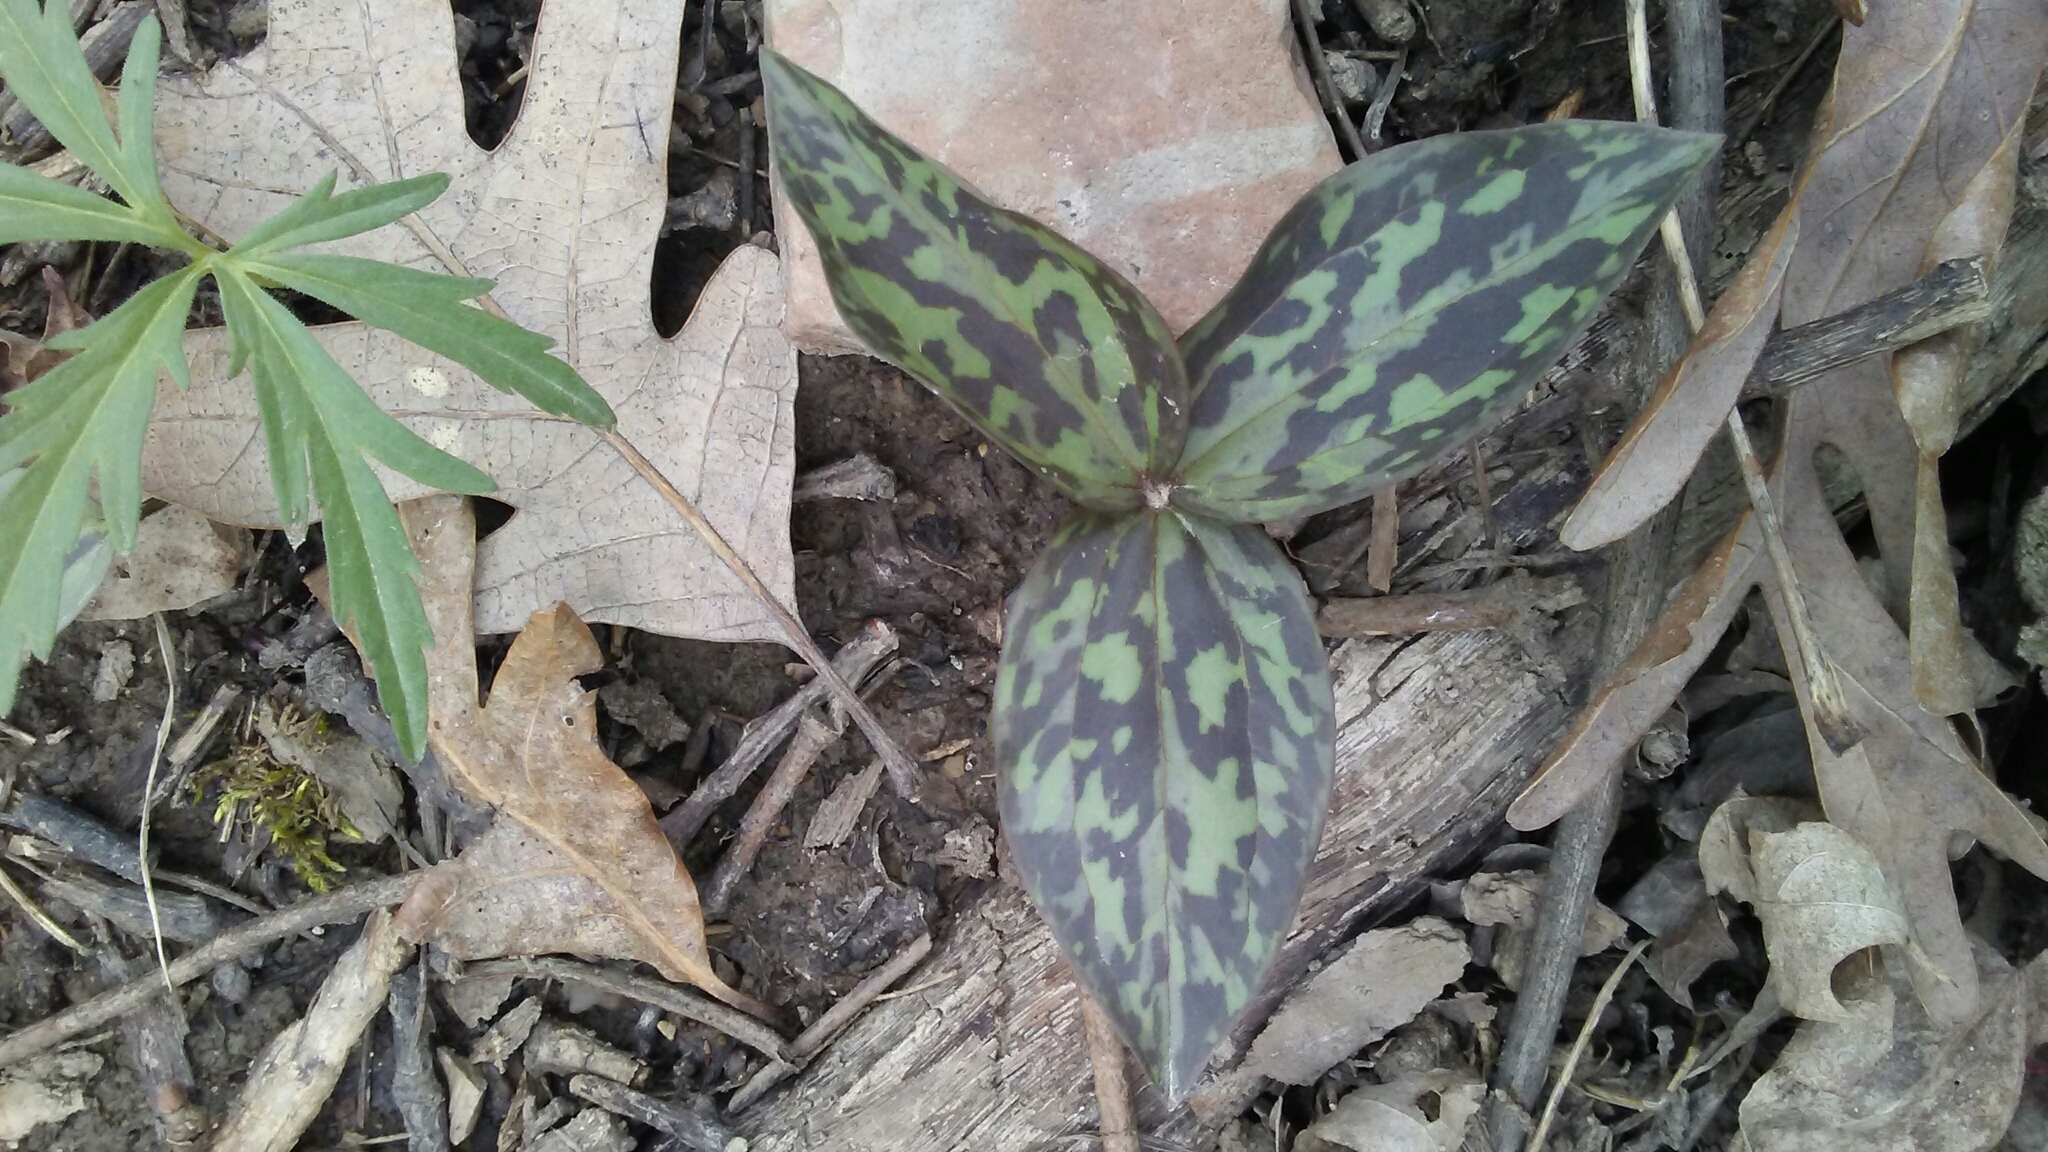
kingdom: Plantae
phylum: Tracheophyta
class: Liliopsida
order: Liliales
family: Melanthiaceae
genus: Trillium
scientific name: Trillium recurvatum
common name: Bloody butcher
